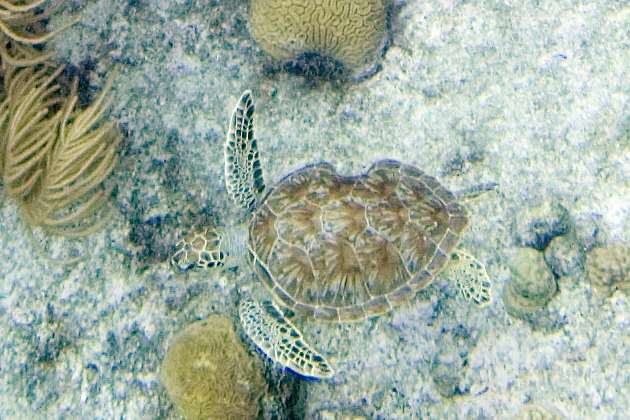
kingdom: Animalia
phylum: Chordata
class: Testudines
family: Cheloniidae
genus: Chelonia
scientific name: Chelonia mydas
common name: Green turtle
